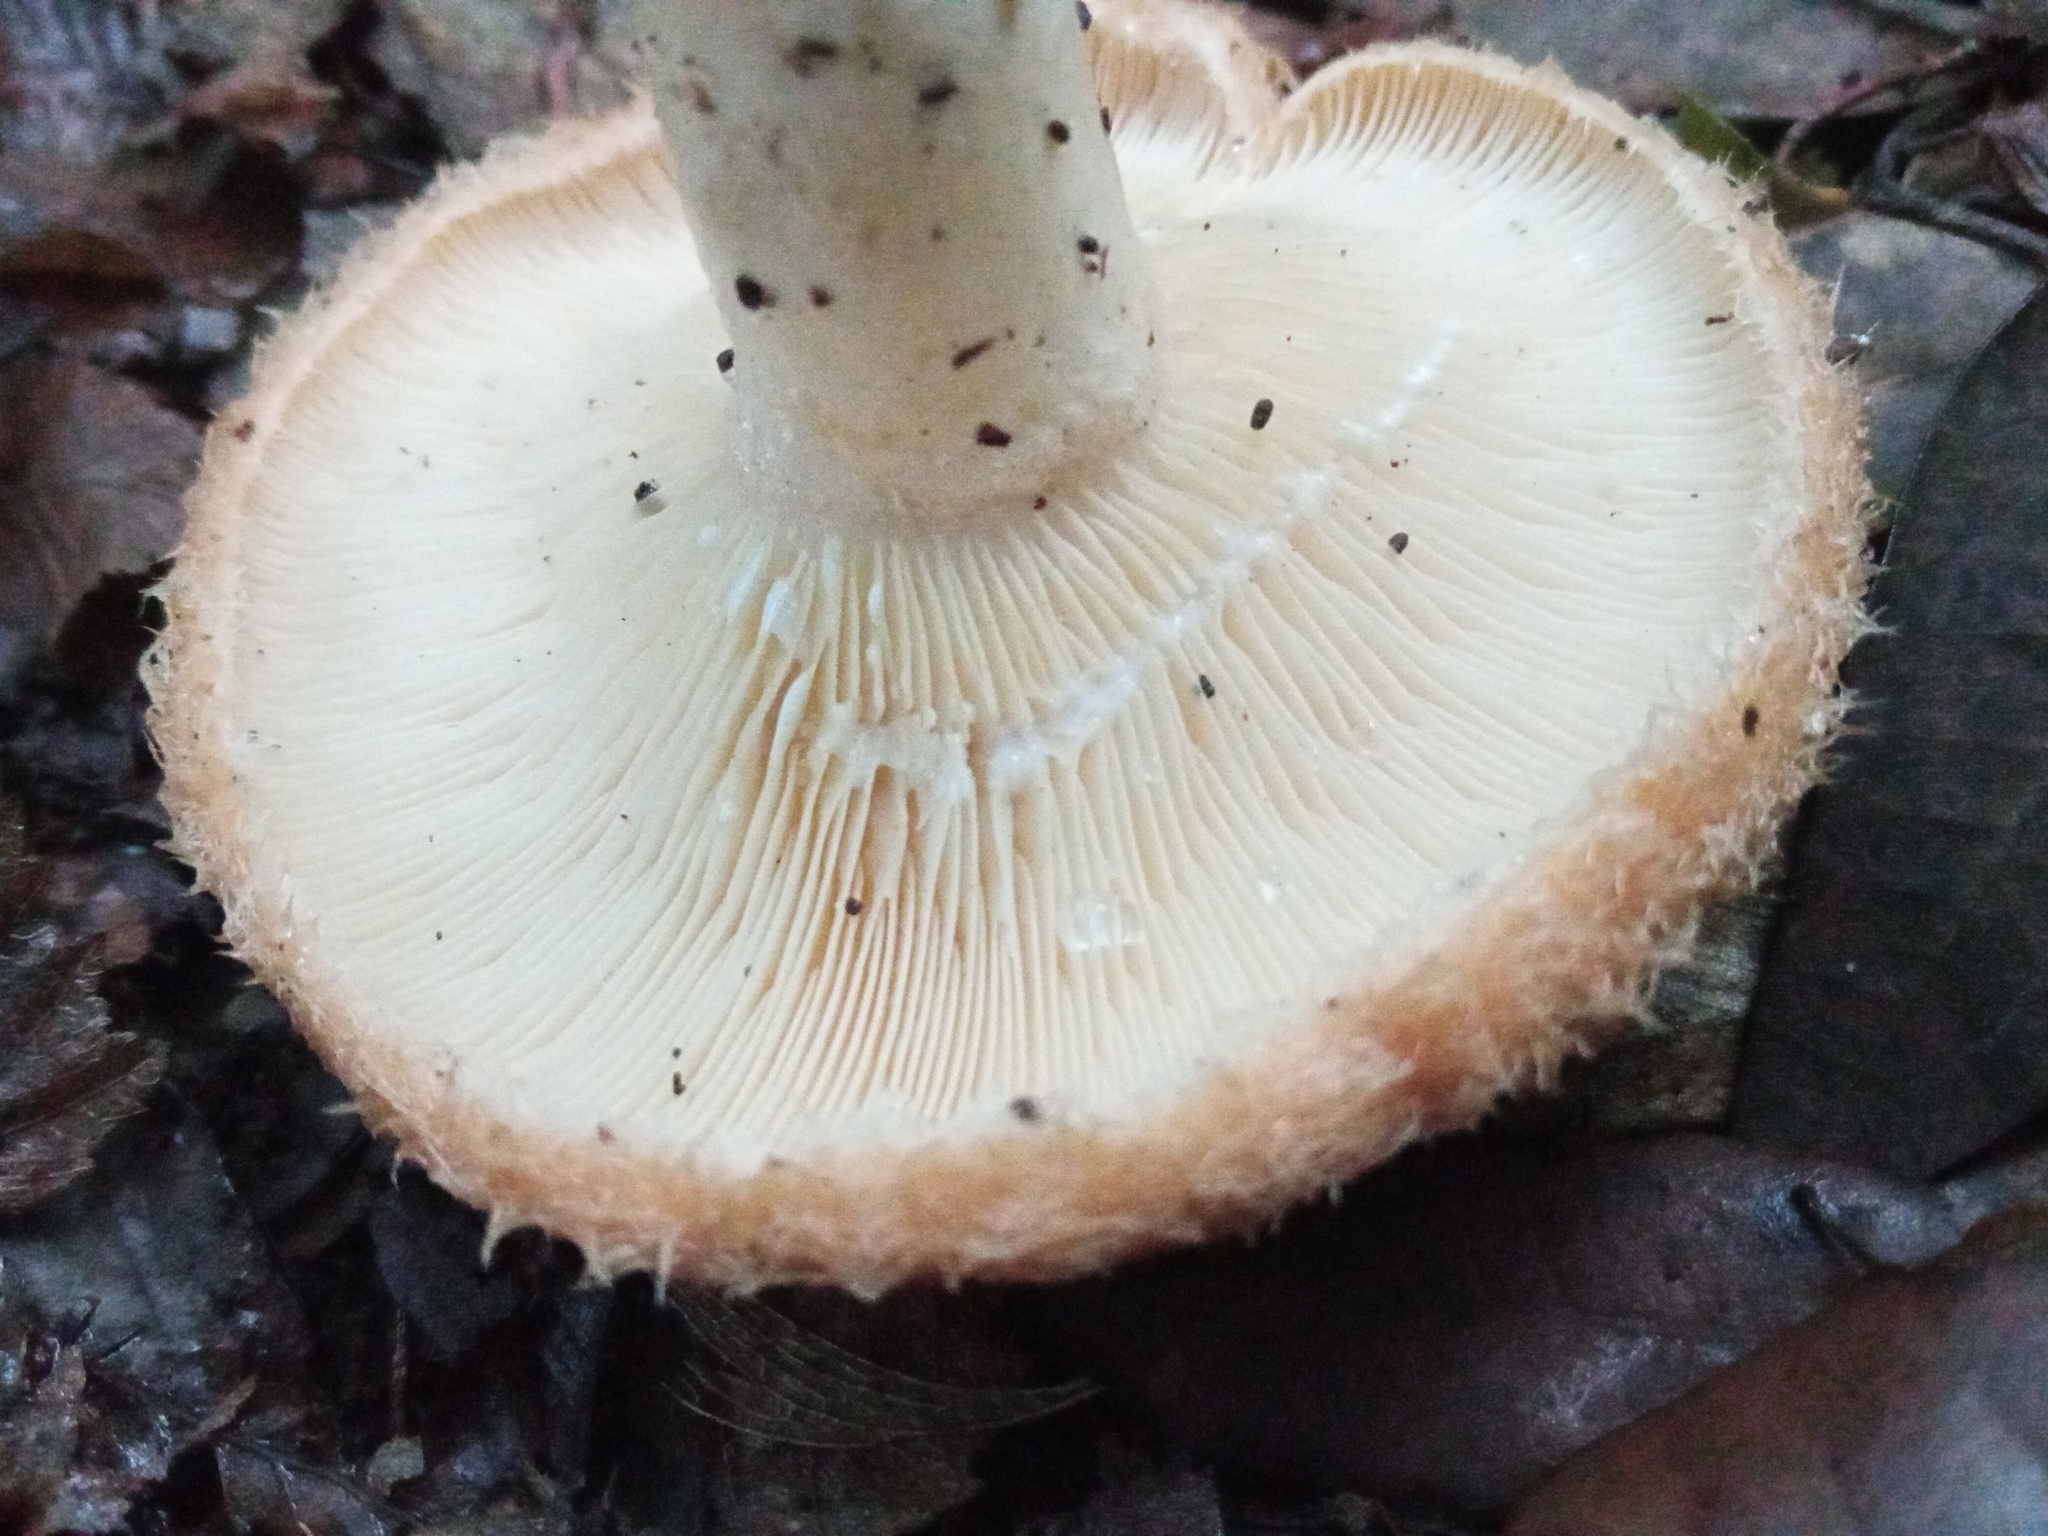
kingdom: Fungi
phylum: Basidiomycota
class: Agaricomycetes
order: Russulales
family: Russulaceae
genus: Lactarius
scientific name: Lactarius mairei
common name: Whiskery milkcap
